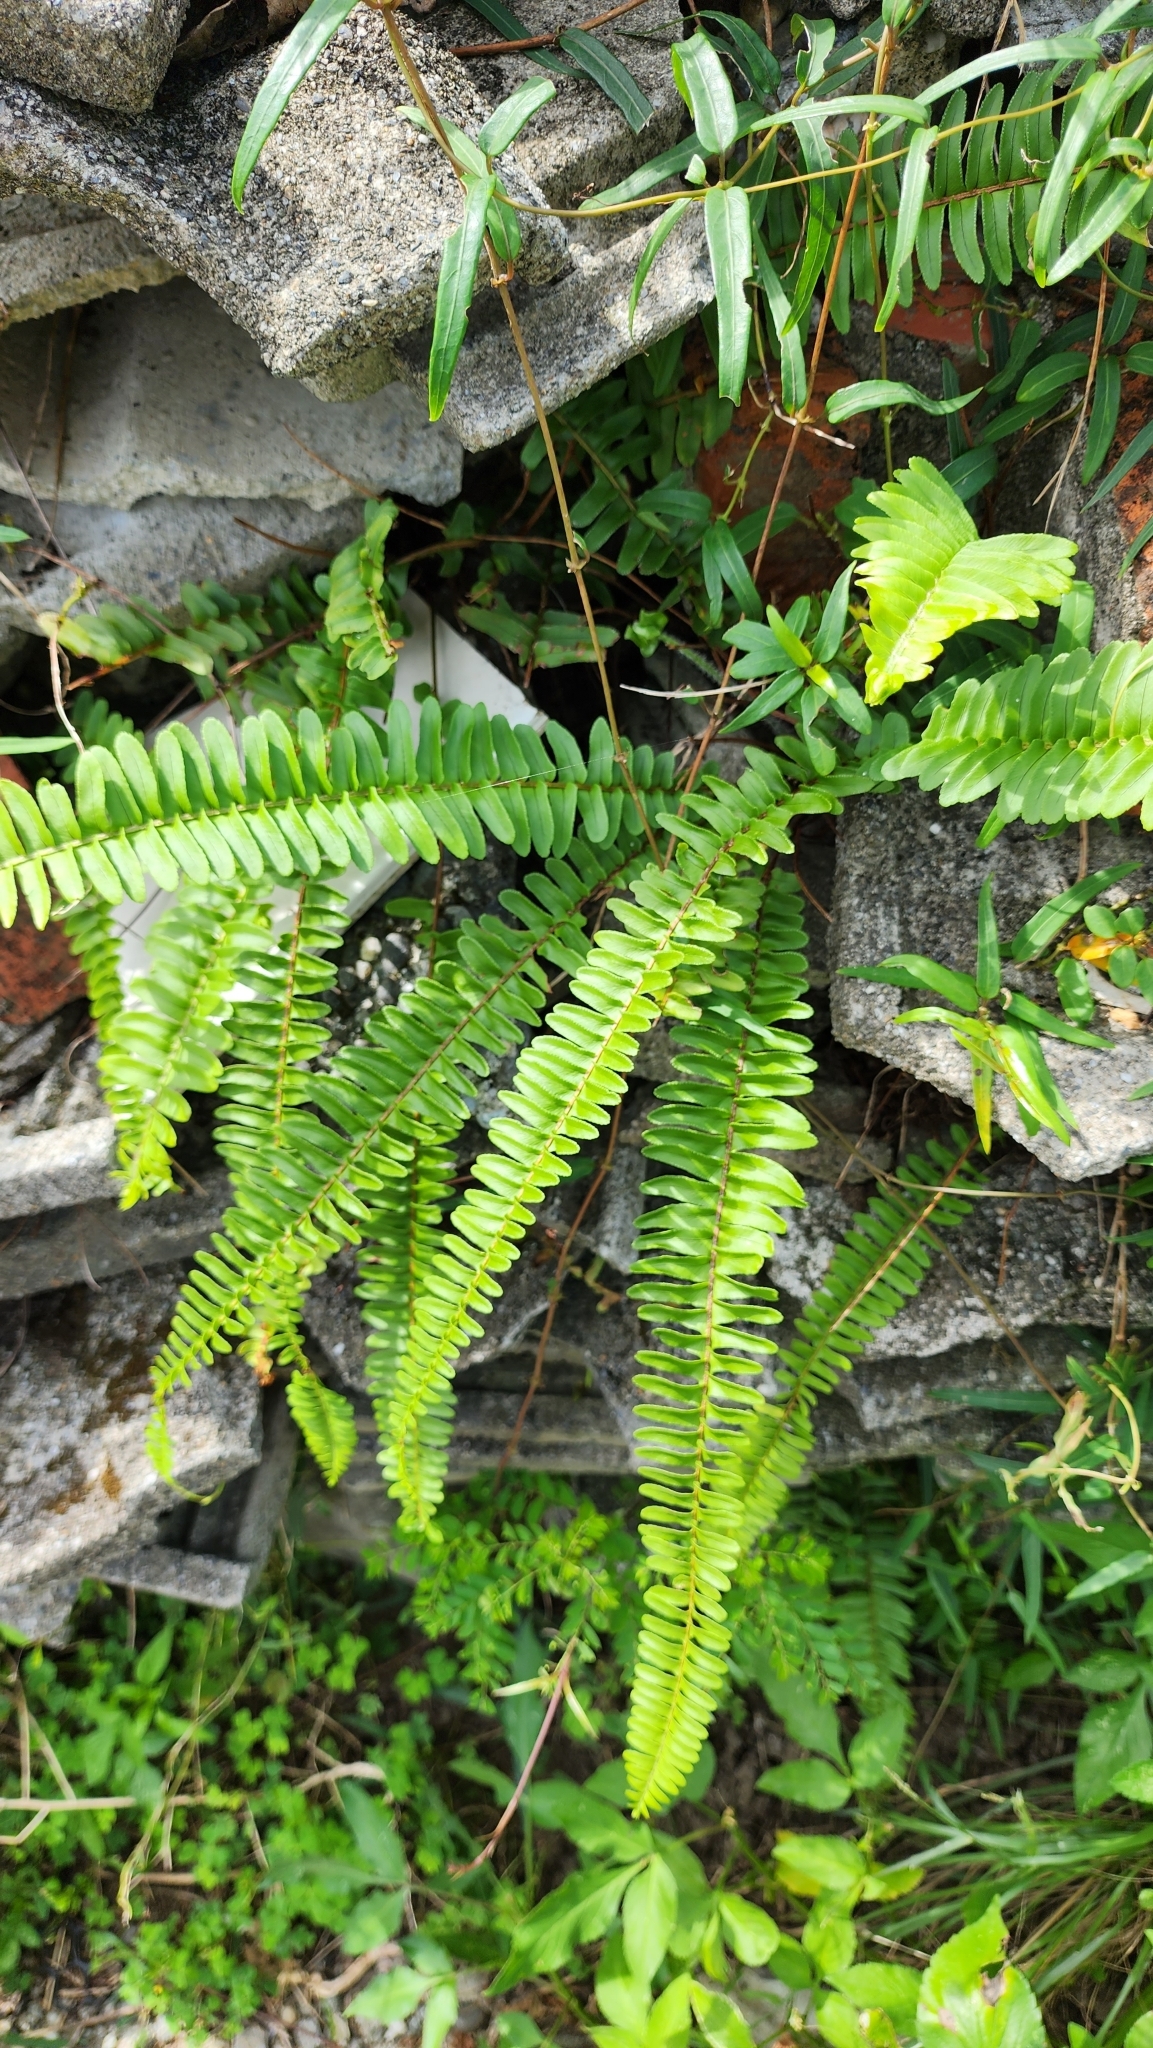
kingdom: Plantae
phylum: Tracheophyta
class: Polypodiopsida
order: Polypodiales
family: Nephrolepidaceae
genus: Nephrolepis
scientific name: Nephrolepis cordifolia
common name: Narrow swordfern
